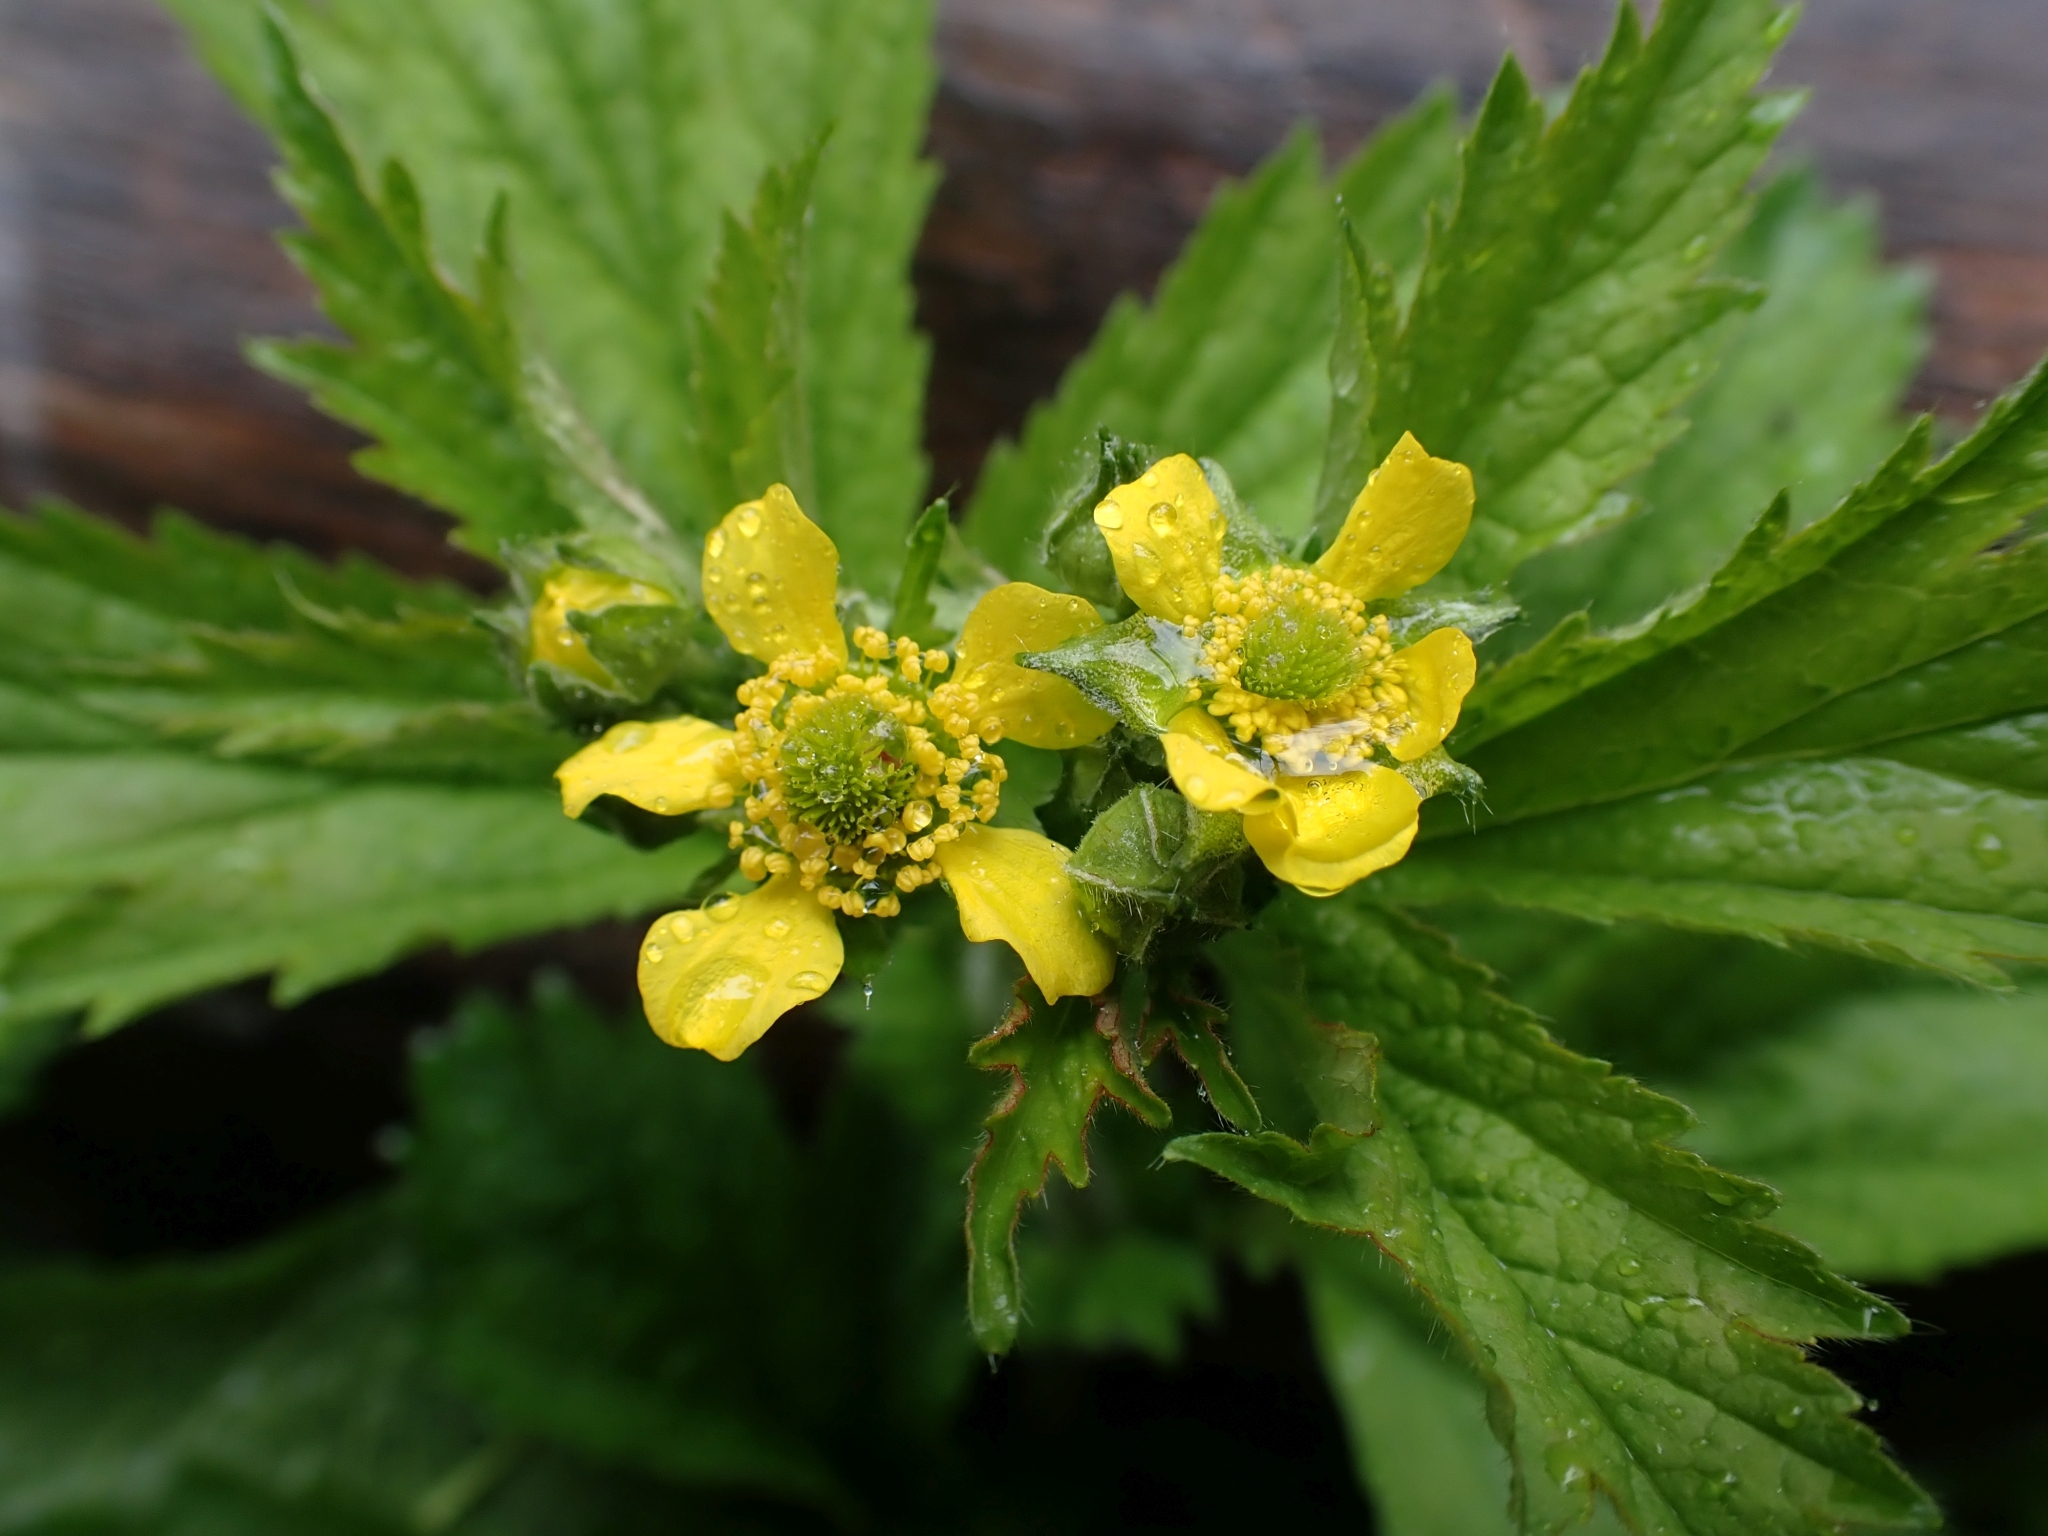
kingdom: Plantae
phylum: Tracheophyta
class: Magnoliopsida
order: Rosales
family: Rosaceae
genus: Geum
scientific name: Geum macrophyllum
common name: Large-leaved avens
